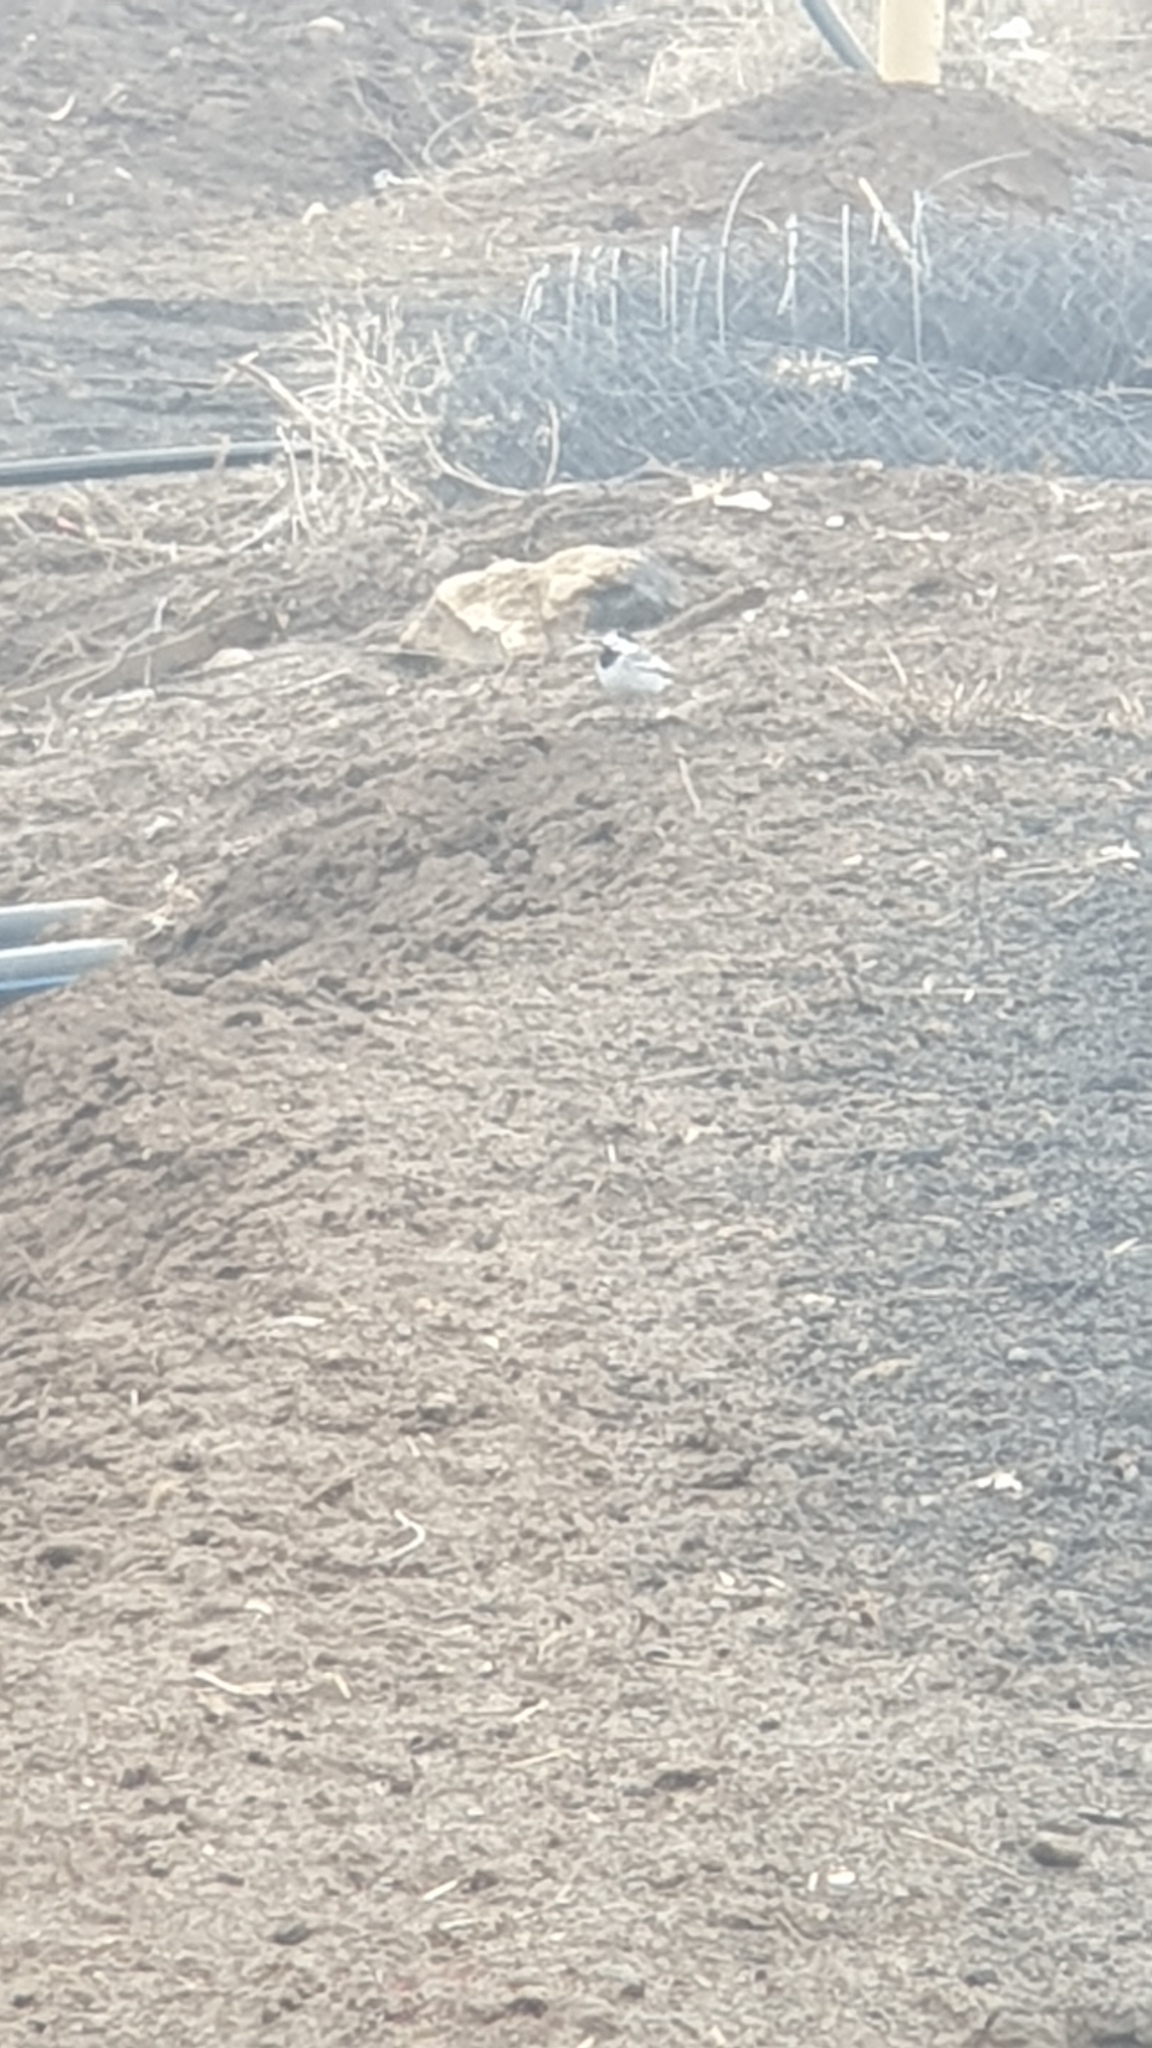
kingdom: Animalia
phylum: Chordata
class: Aves
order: Passeriformes
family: Motacillidae
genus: Motacilla
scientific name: Motacilla alba
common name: White wagtail
